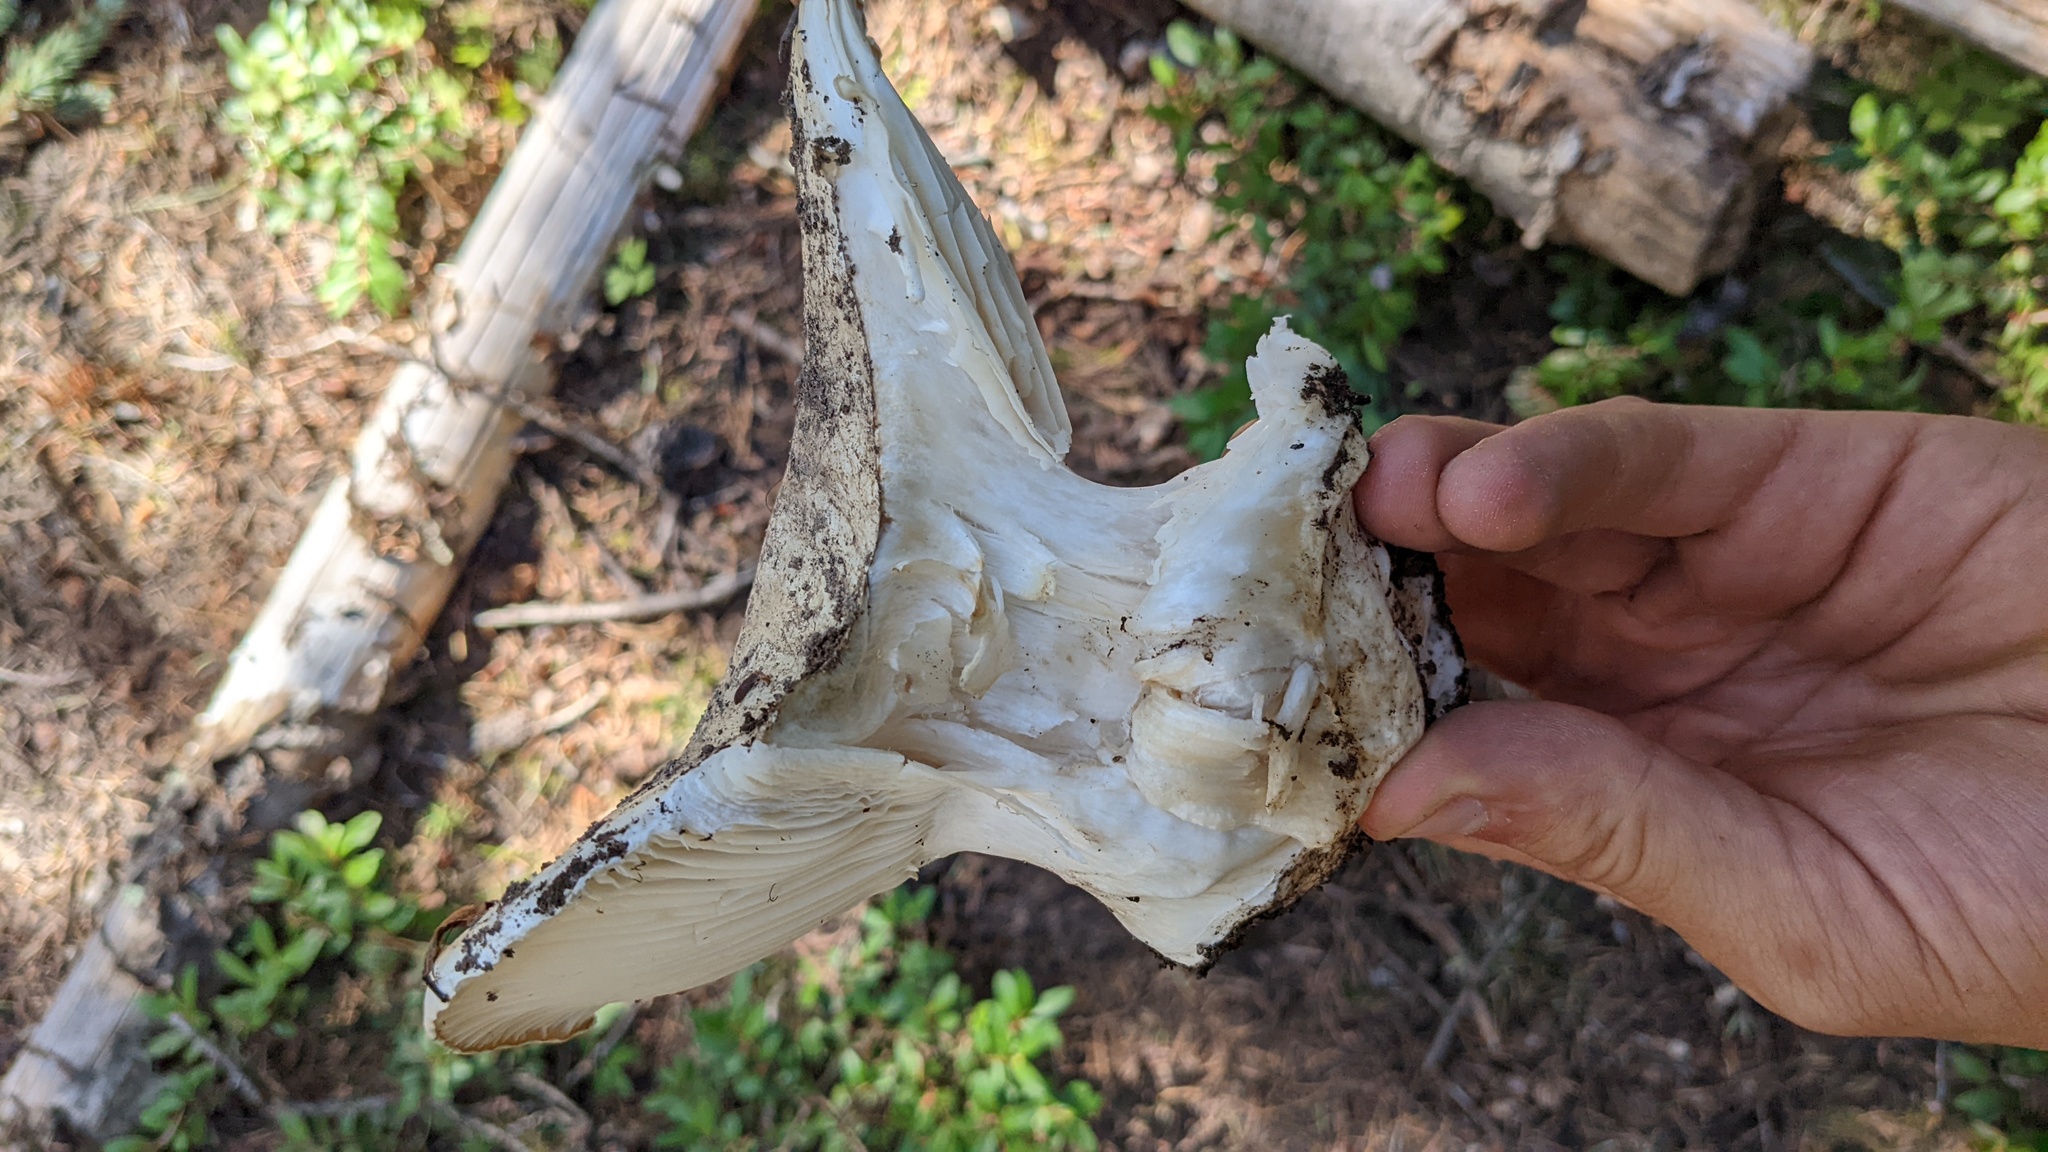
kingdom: Fungi
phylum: Basidiomycota
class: Agaricomycetes
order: Agaricales
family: Hygrophoraceae
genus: Hygrophorus
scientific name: Hygrophorus subalpinus
